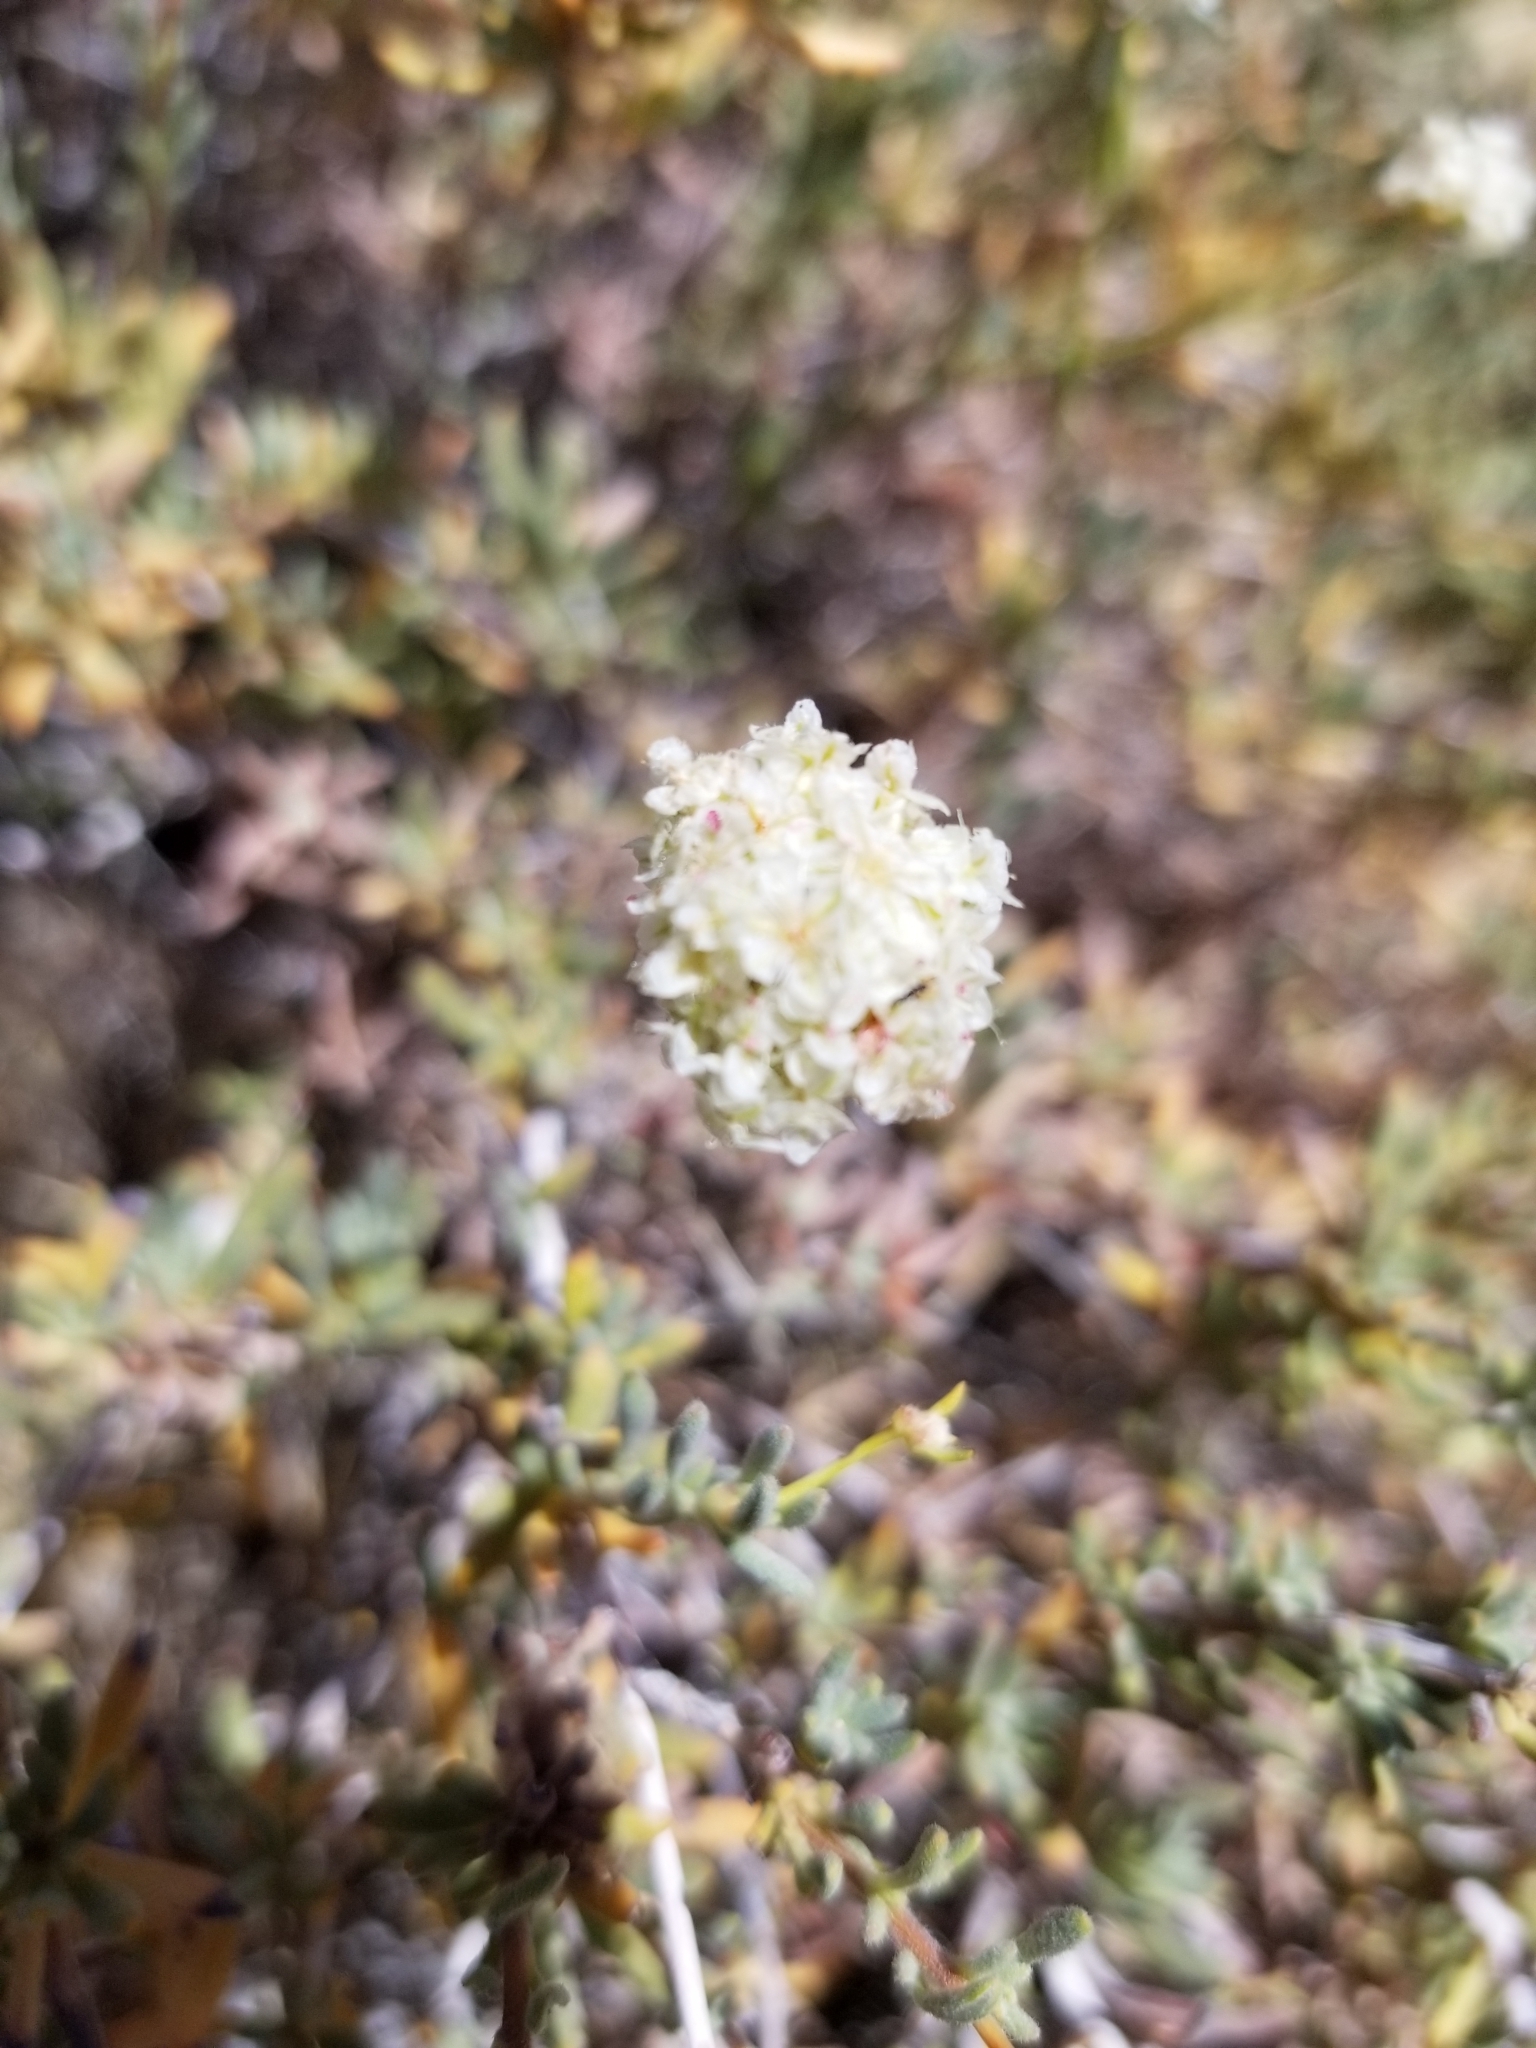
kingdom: Plantae
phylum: Tracheophyta
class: Magnoliopsida
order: Caryophyllales
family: Polygonaceae
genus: Eriogonum
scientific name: Eriogonum fasciculatum
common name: California wild buckwheat
